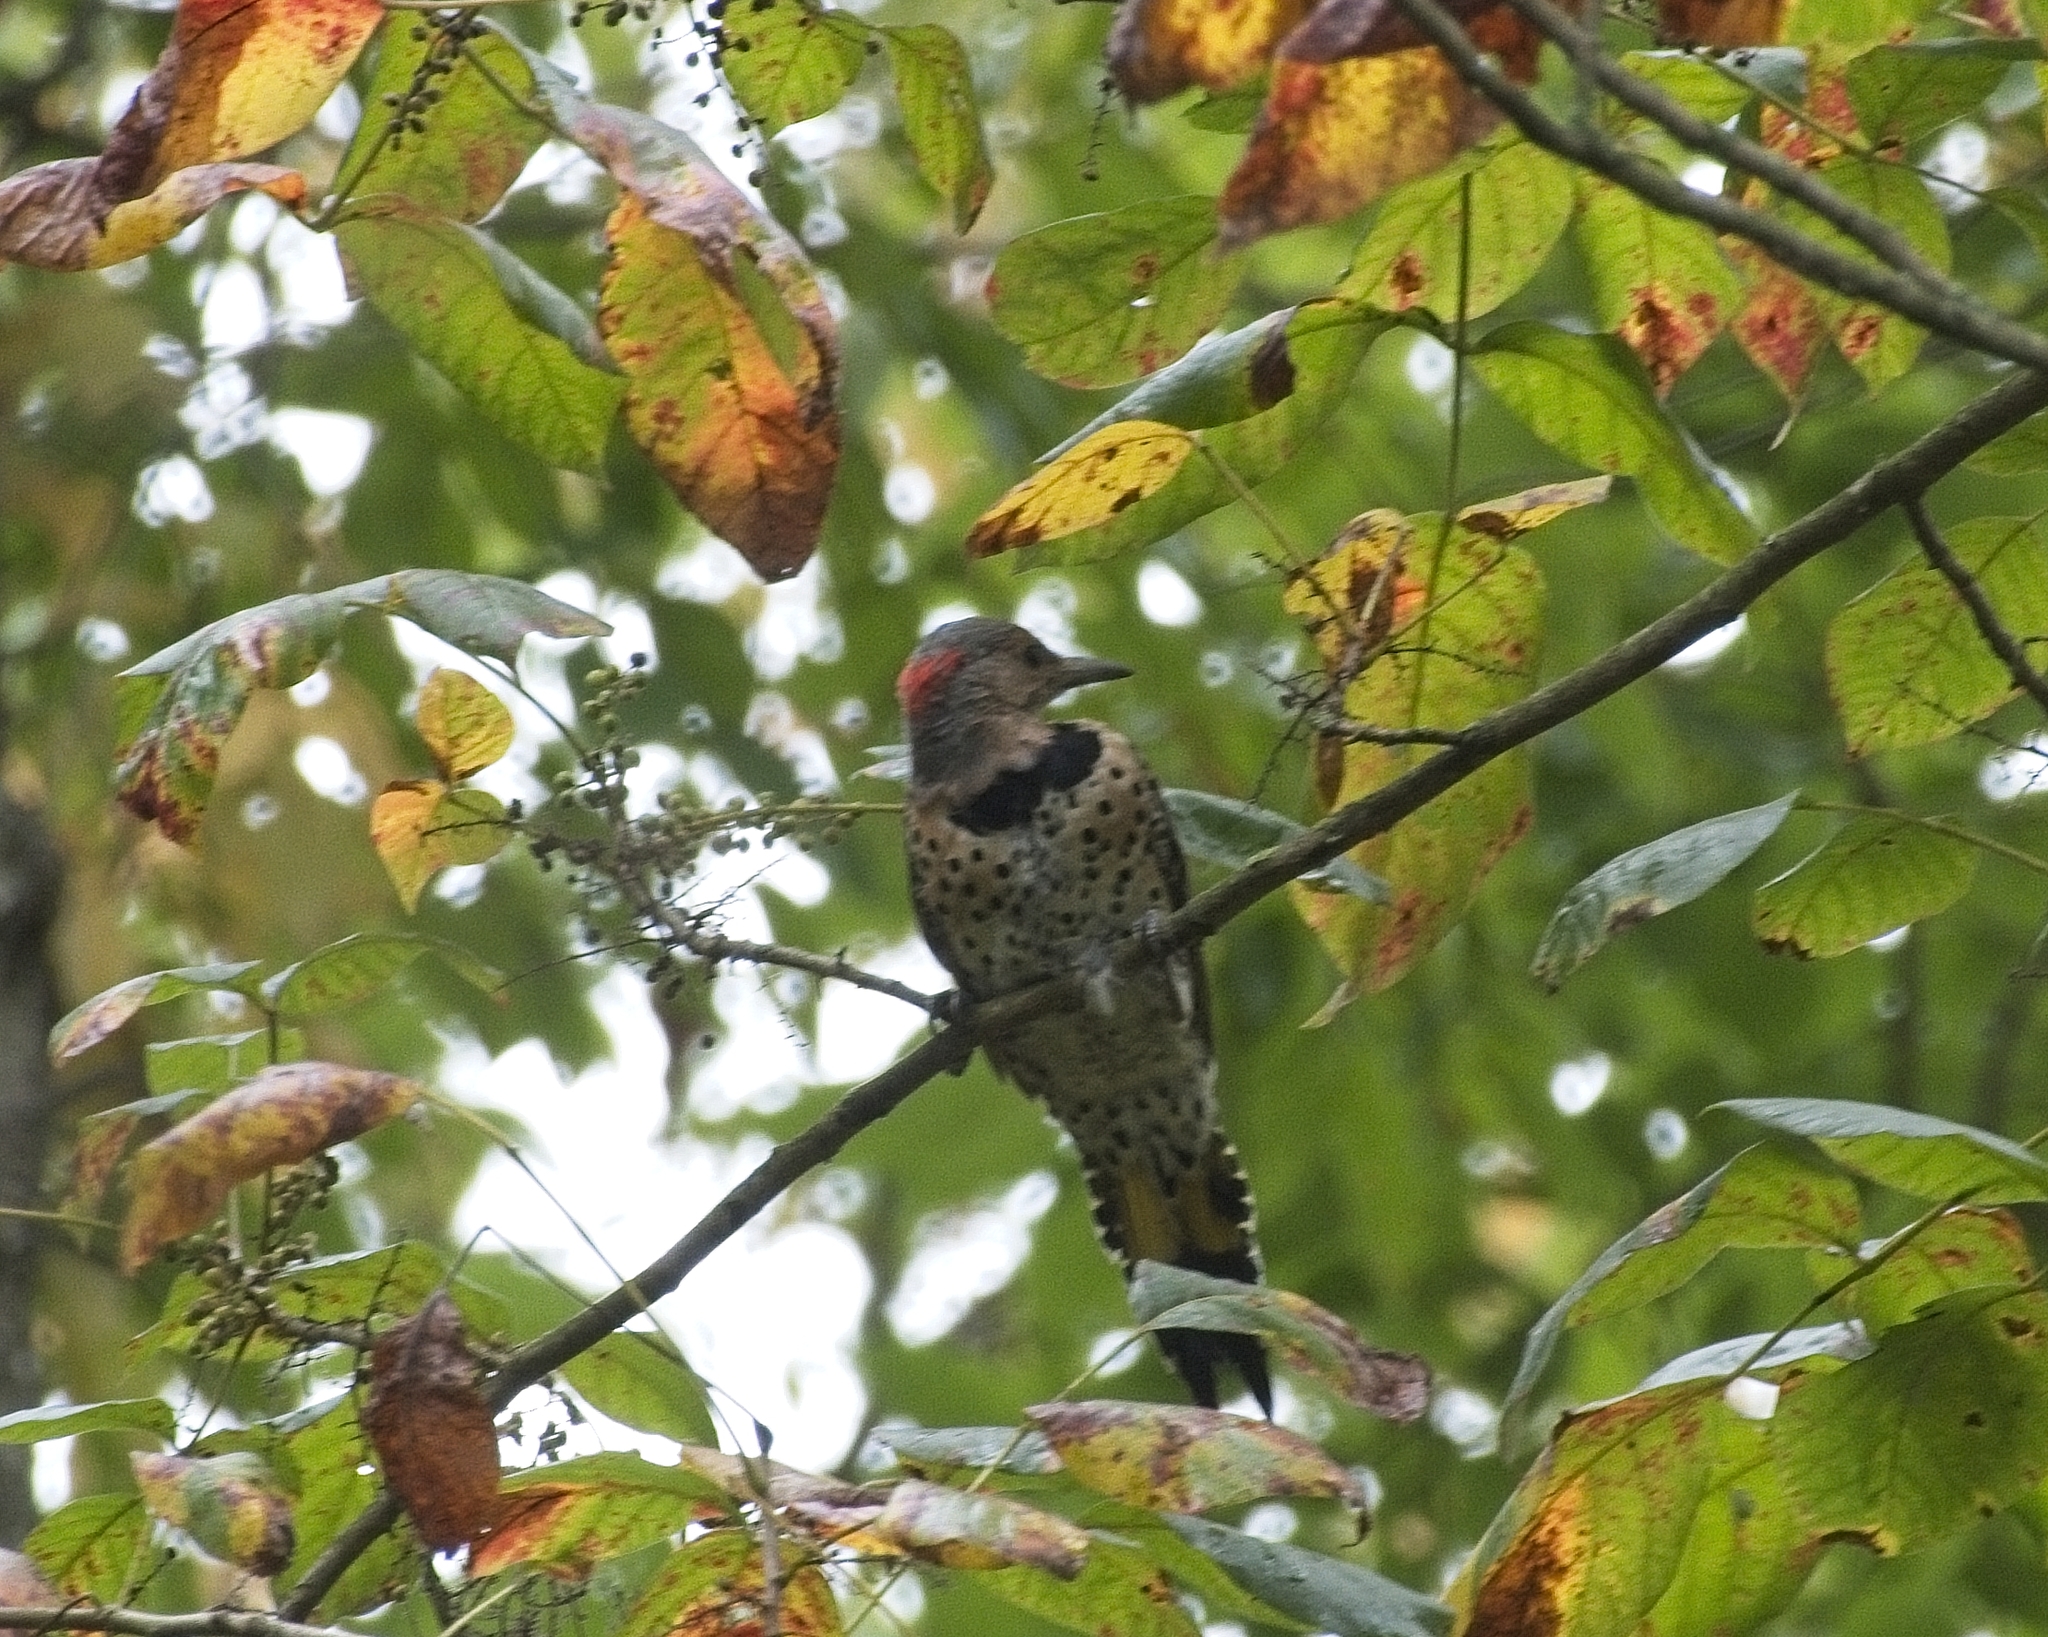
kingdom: Animalia
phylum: Chordata
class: Aves
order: Piciformes
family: Picidae
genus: Colaptes
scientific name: Colaptes auratus
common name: Northern flicker
